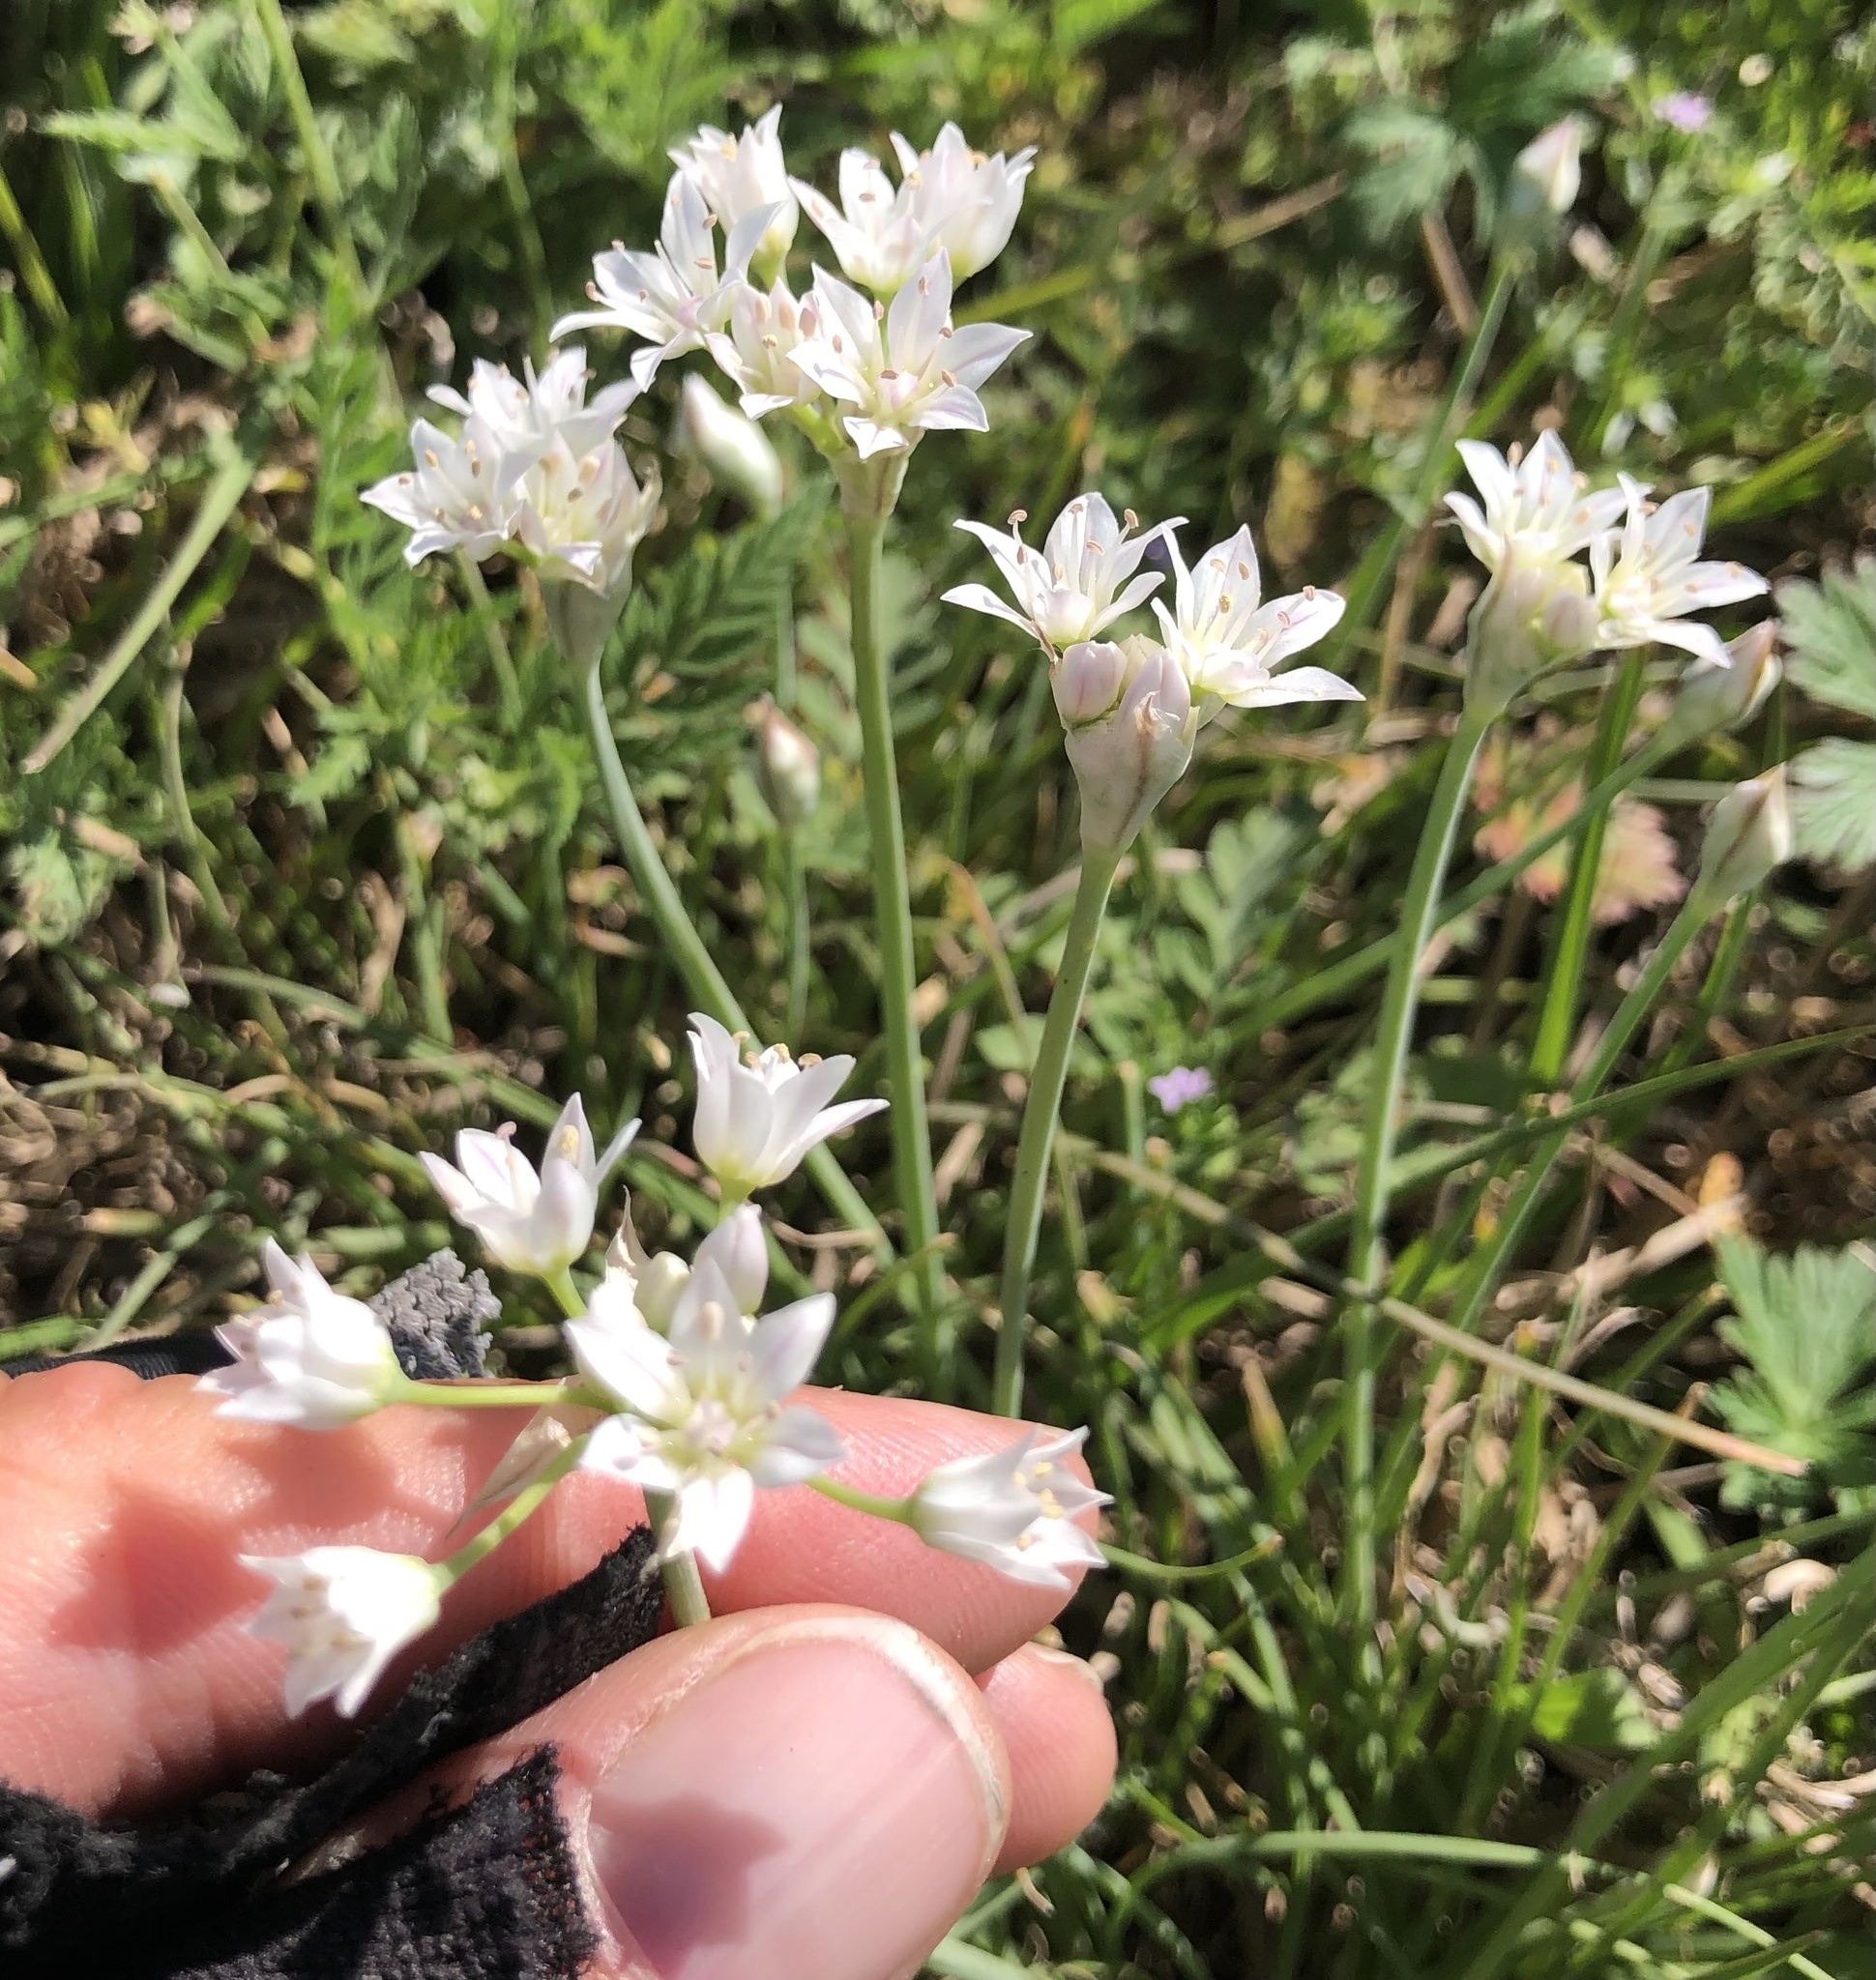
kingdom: Plantae
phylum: Tracheophyta
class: Liliopsida
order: Asparagales
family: Amaryllidaceae
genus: Allium
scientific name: Allium drummondii
